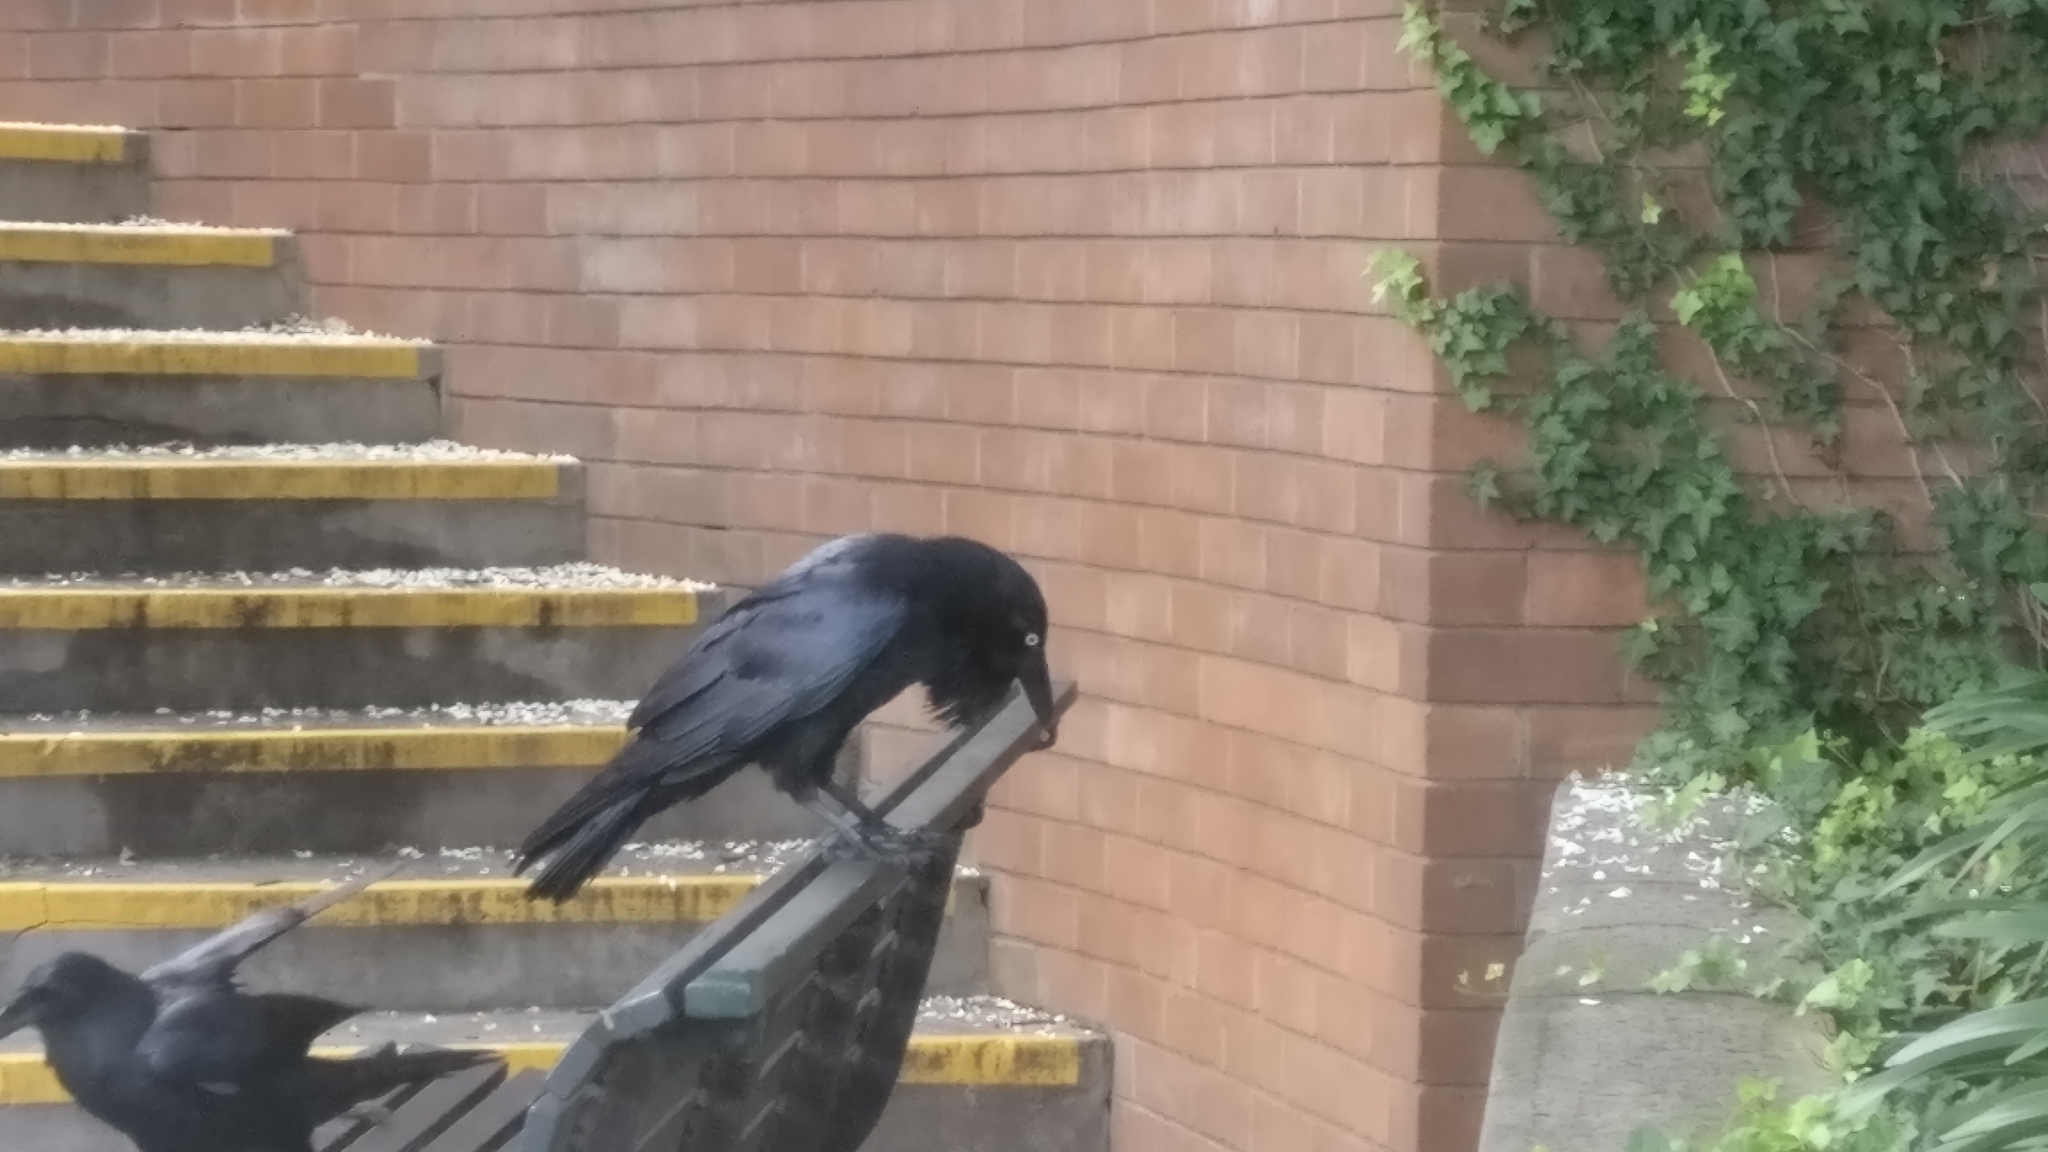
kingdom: Animalia
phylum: Chordata
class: Aves
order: Passeriformes
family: Corvidae
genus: Corvus
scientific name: Corvus coronoides
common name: Australian raven
